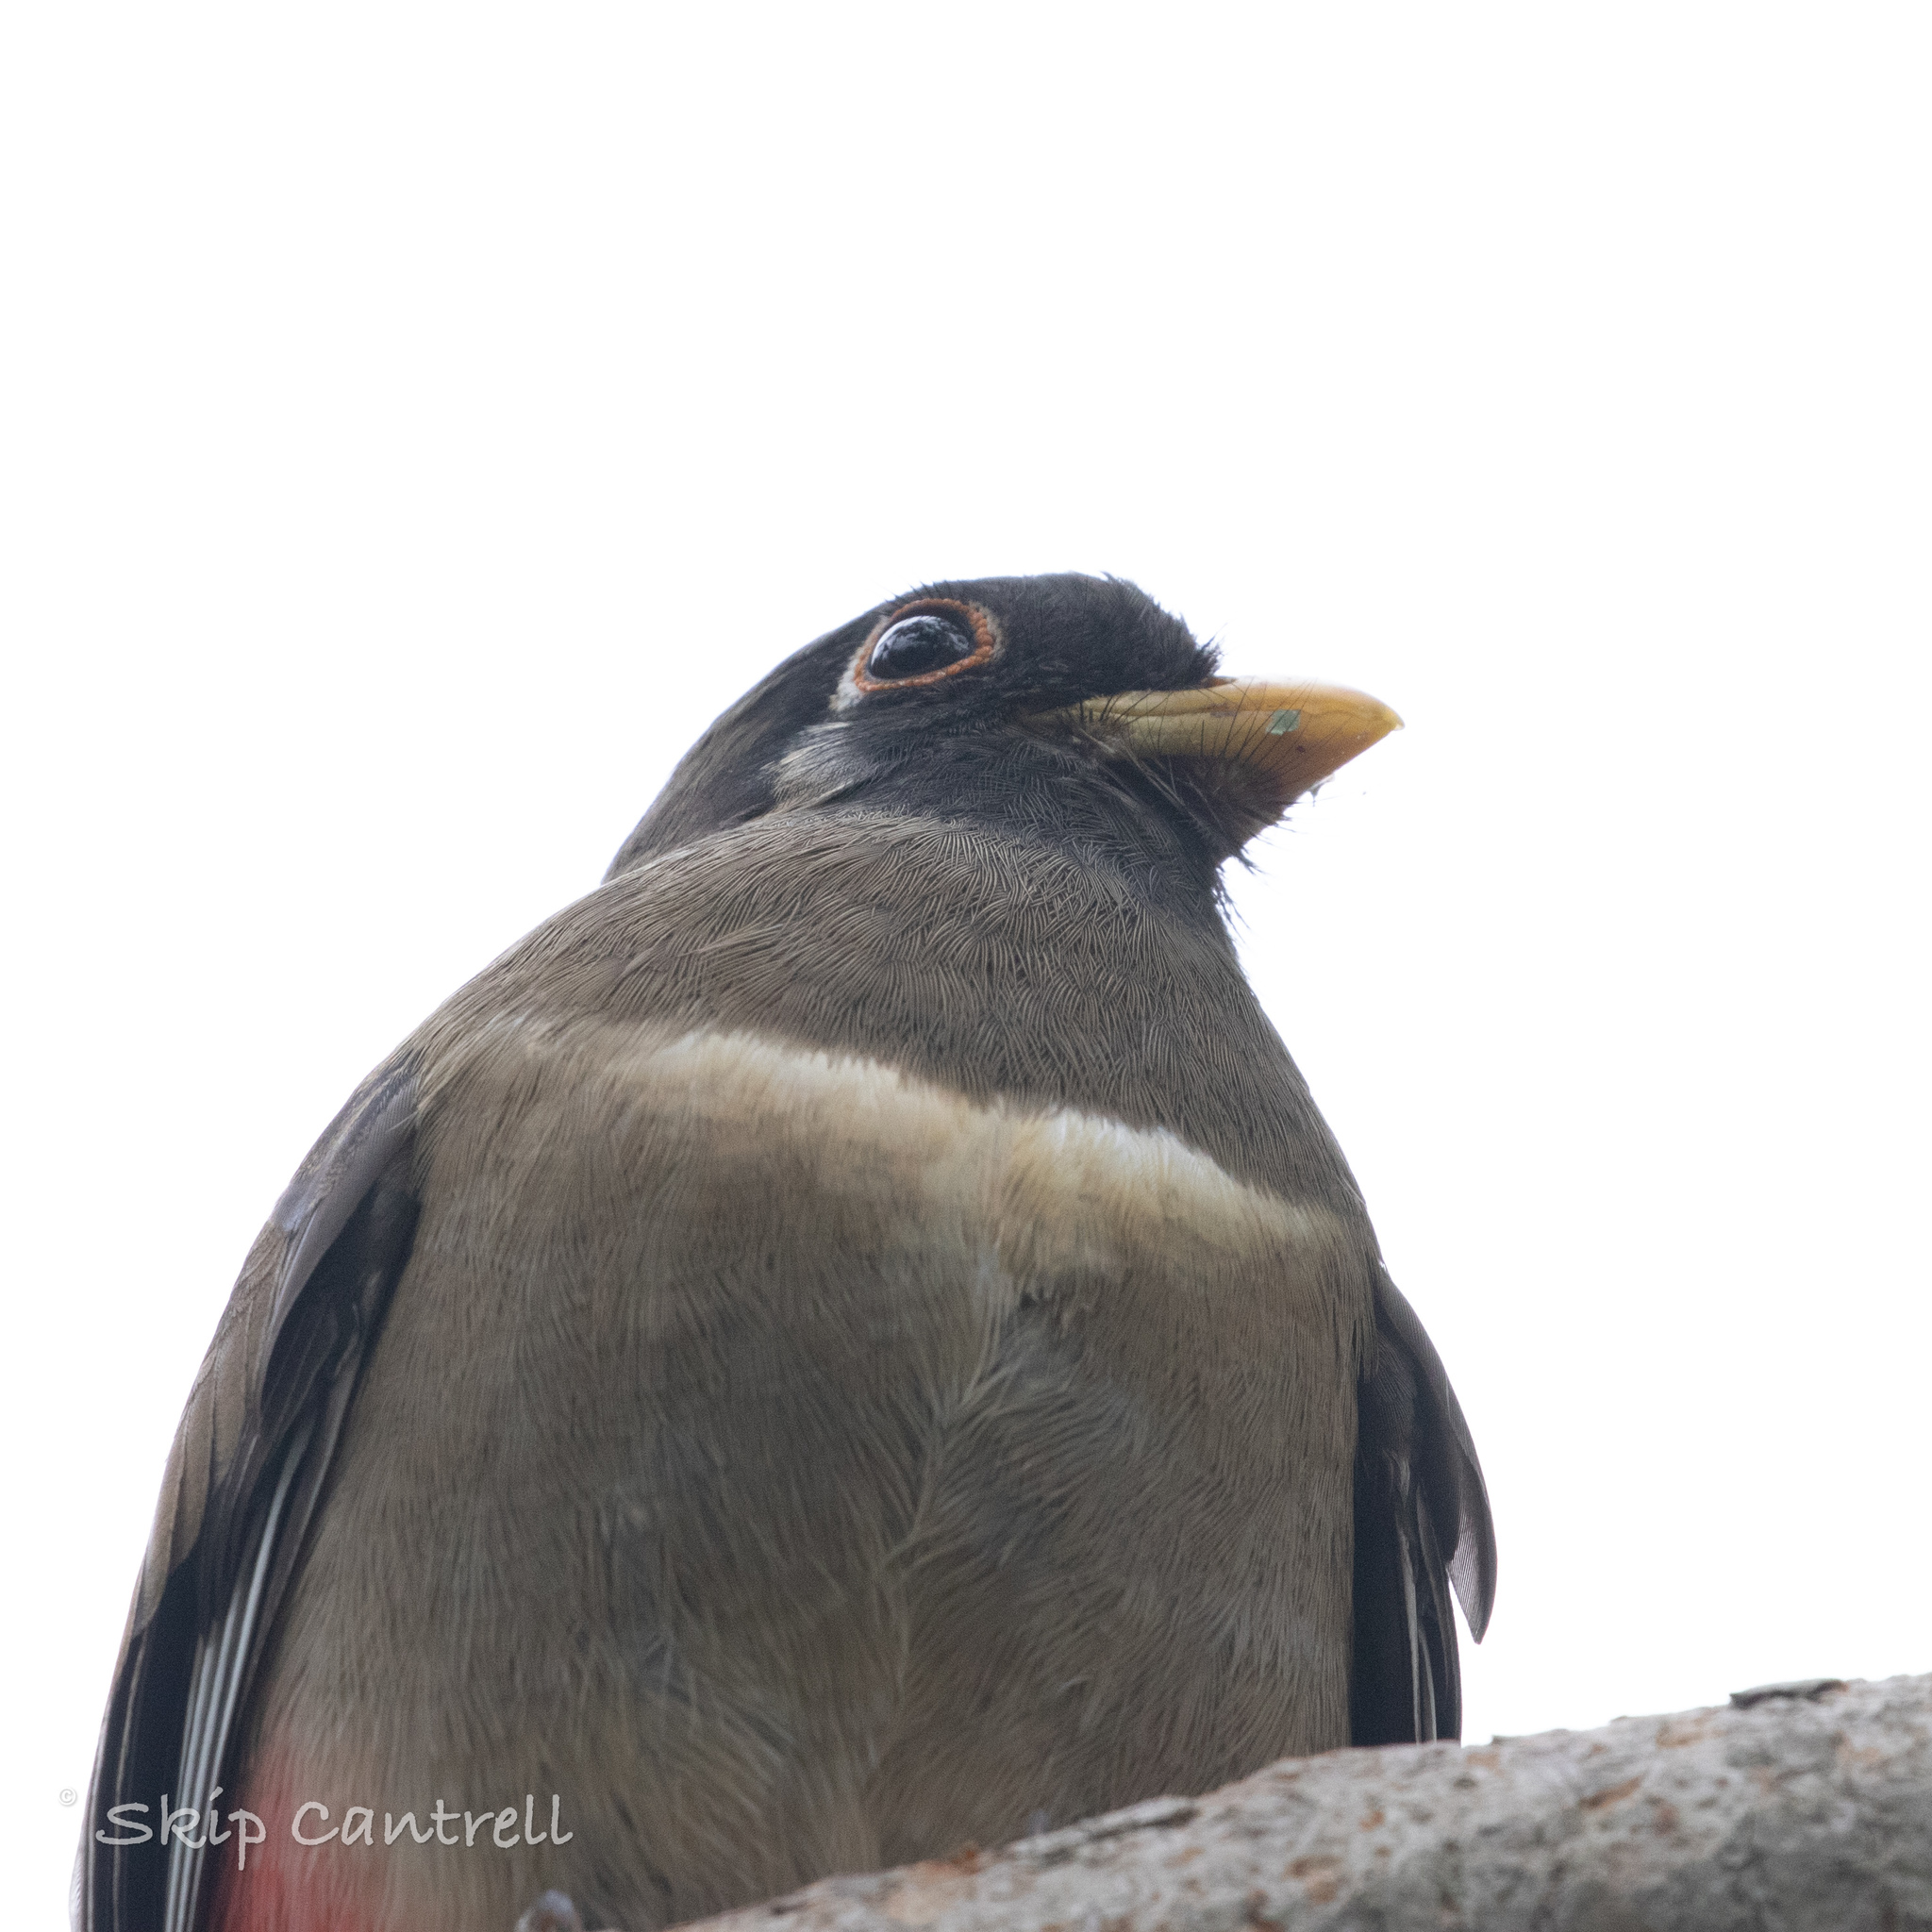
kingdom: Animalia
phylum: Chordata
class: Aves
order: Trogoniformes
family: Trogonidae
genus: Trogon
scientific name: Trogon elegans
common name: Elegant trogon
